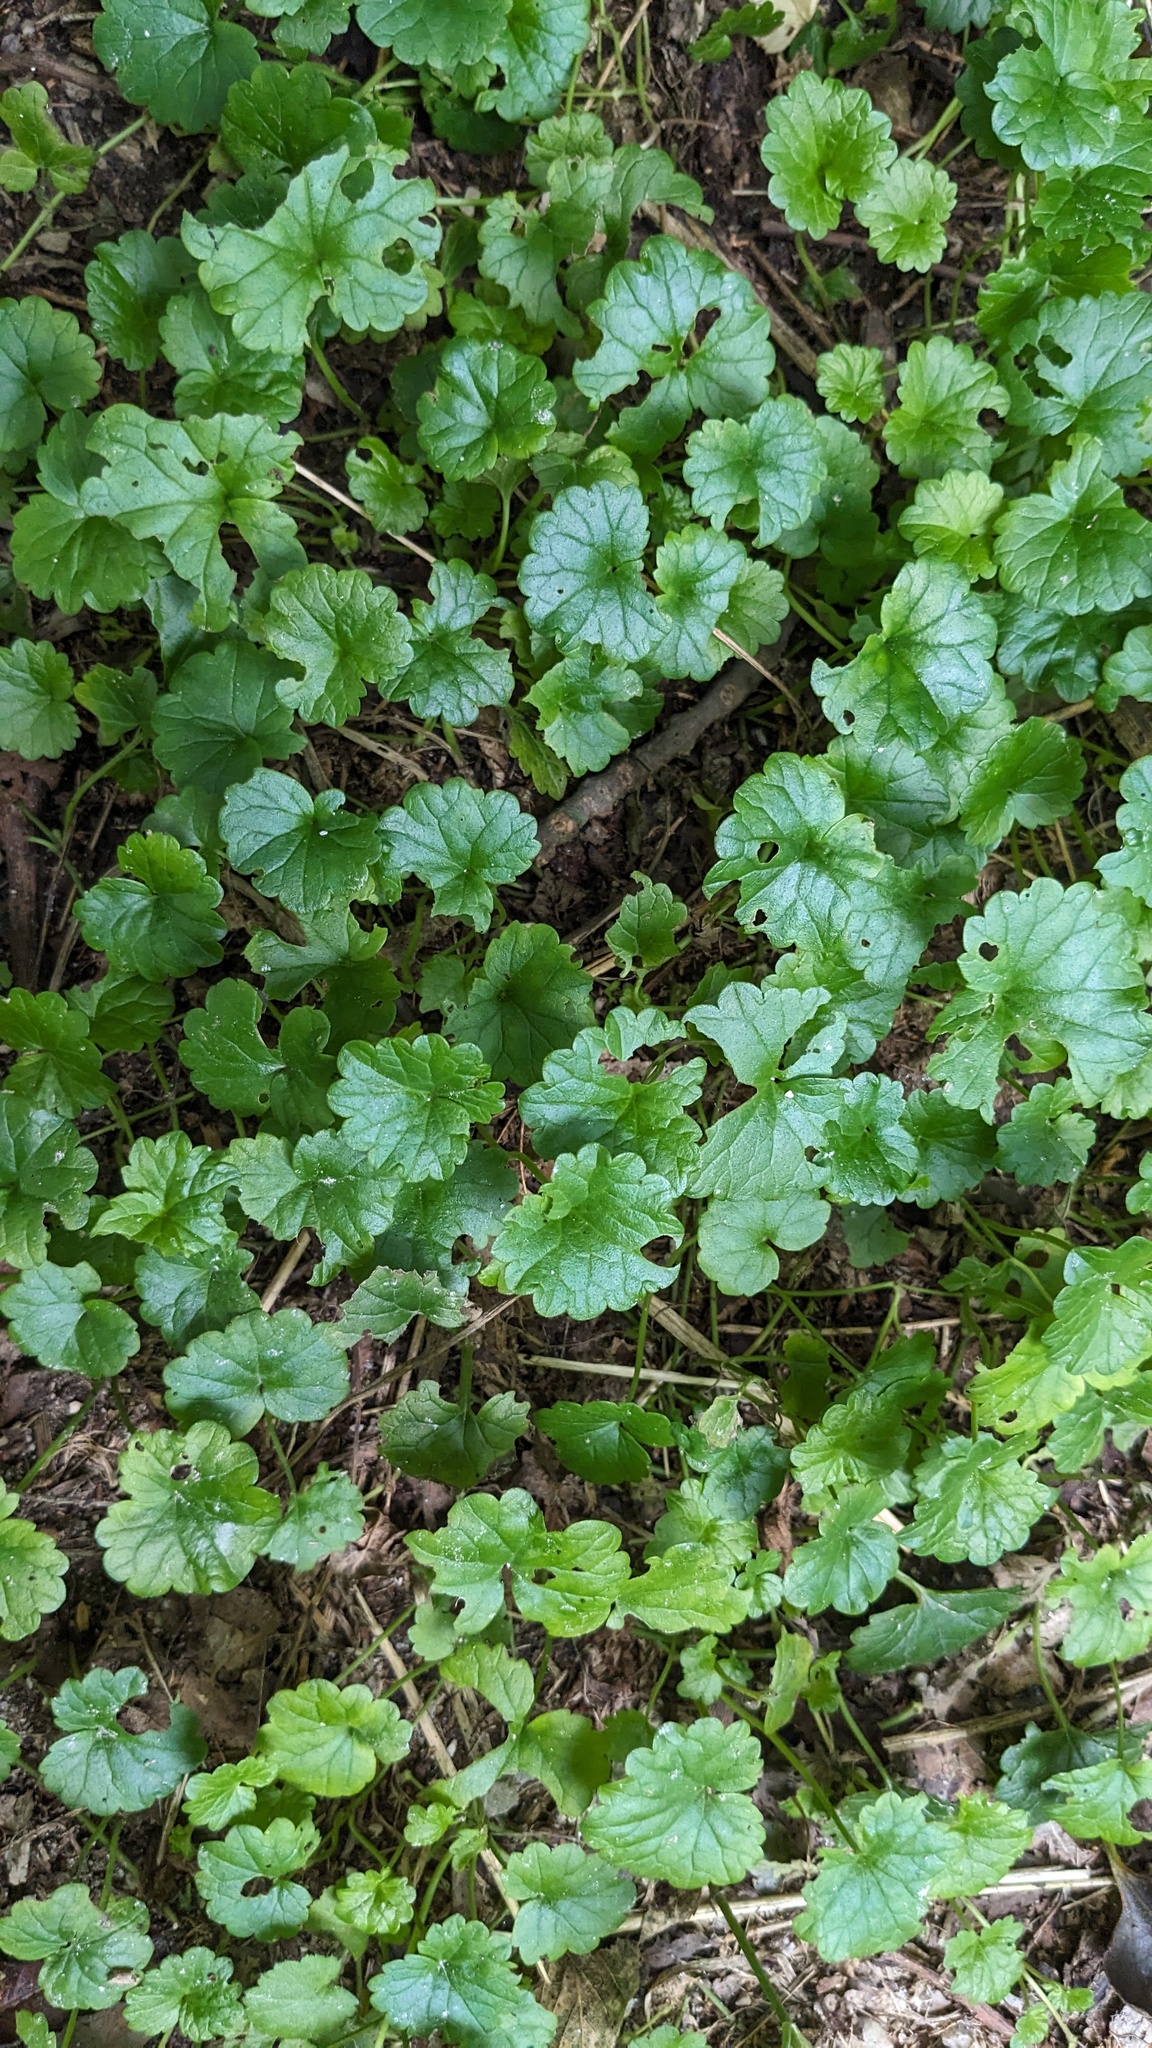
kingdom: Plantae
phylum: Tracheophyta
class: Magnoliopsida
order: Lamiales
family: Lamiaceae
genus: Glechoma
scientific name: Glechoma hederacea
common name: Ground ivy
